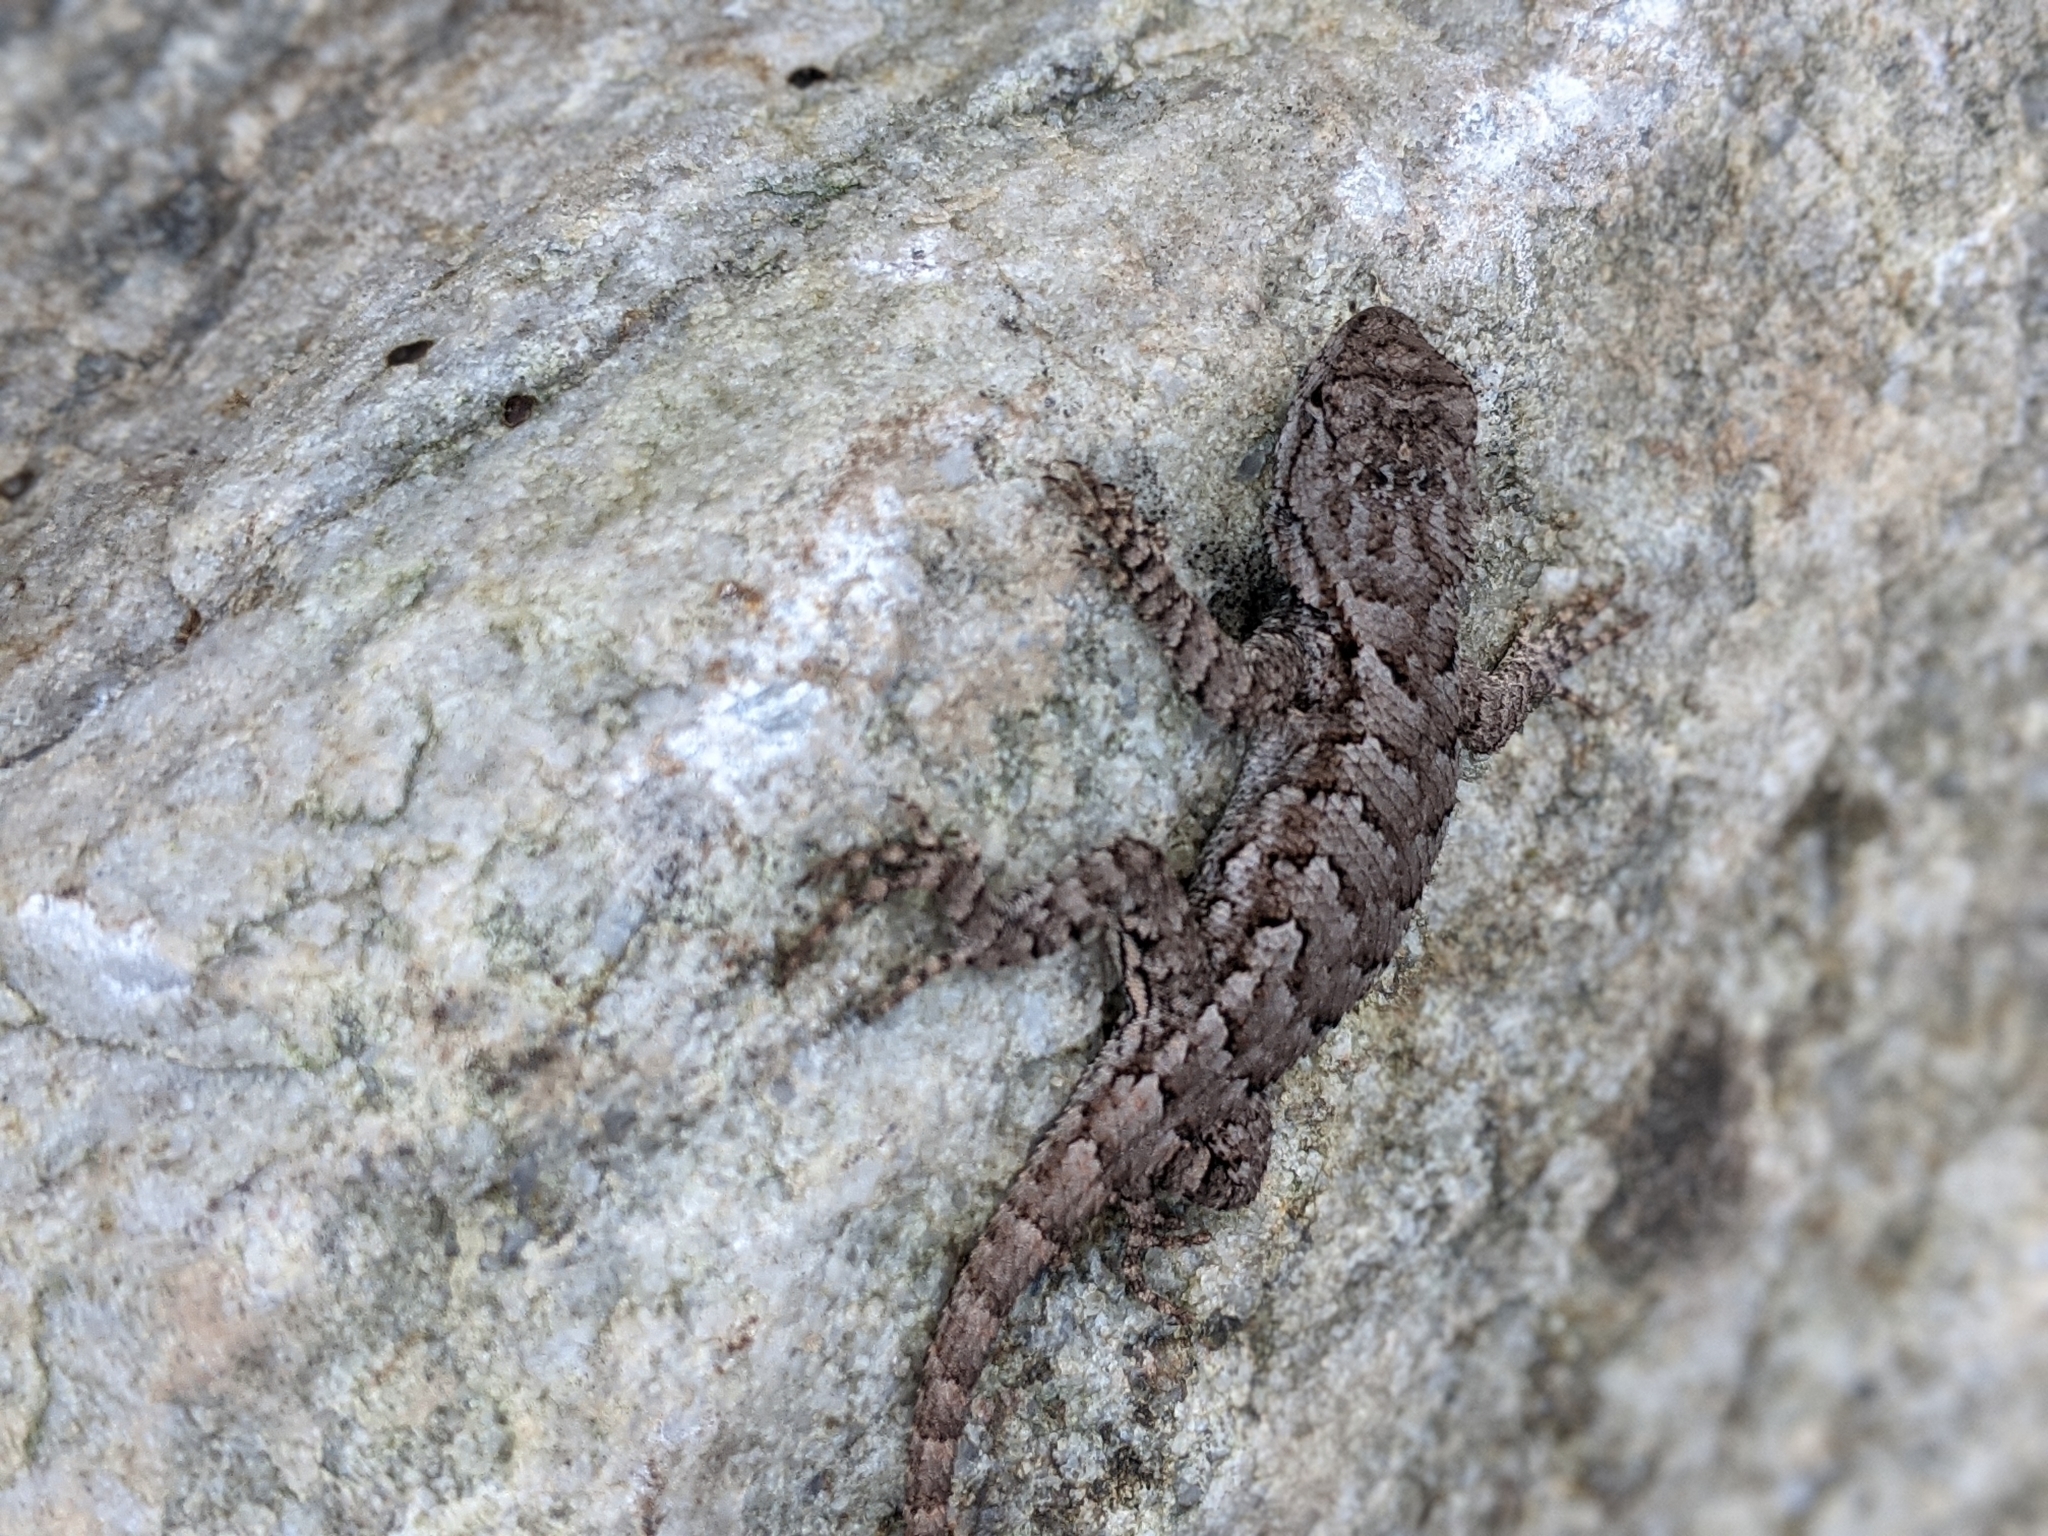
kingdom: Animalia
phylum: Chordata
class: Squamata
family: Phrynosomatidae
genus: Sceloporus
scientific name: Sceloporus undulatus
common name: Eastern fence lizard
